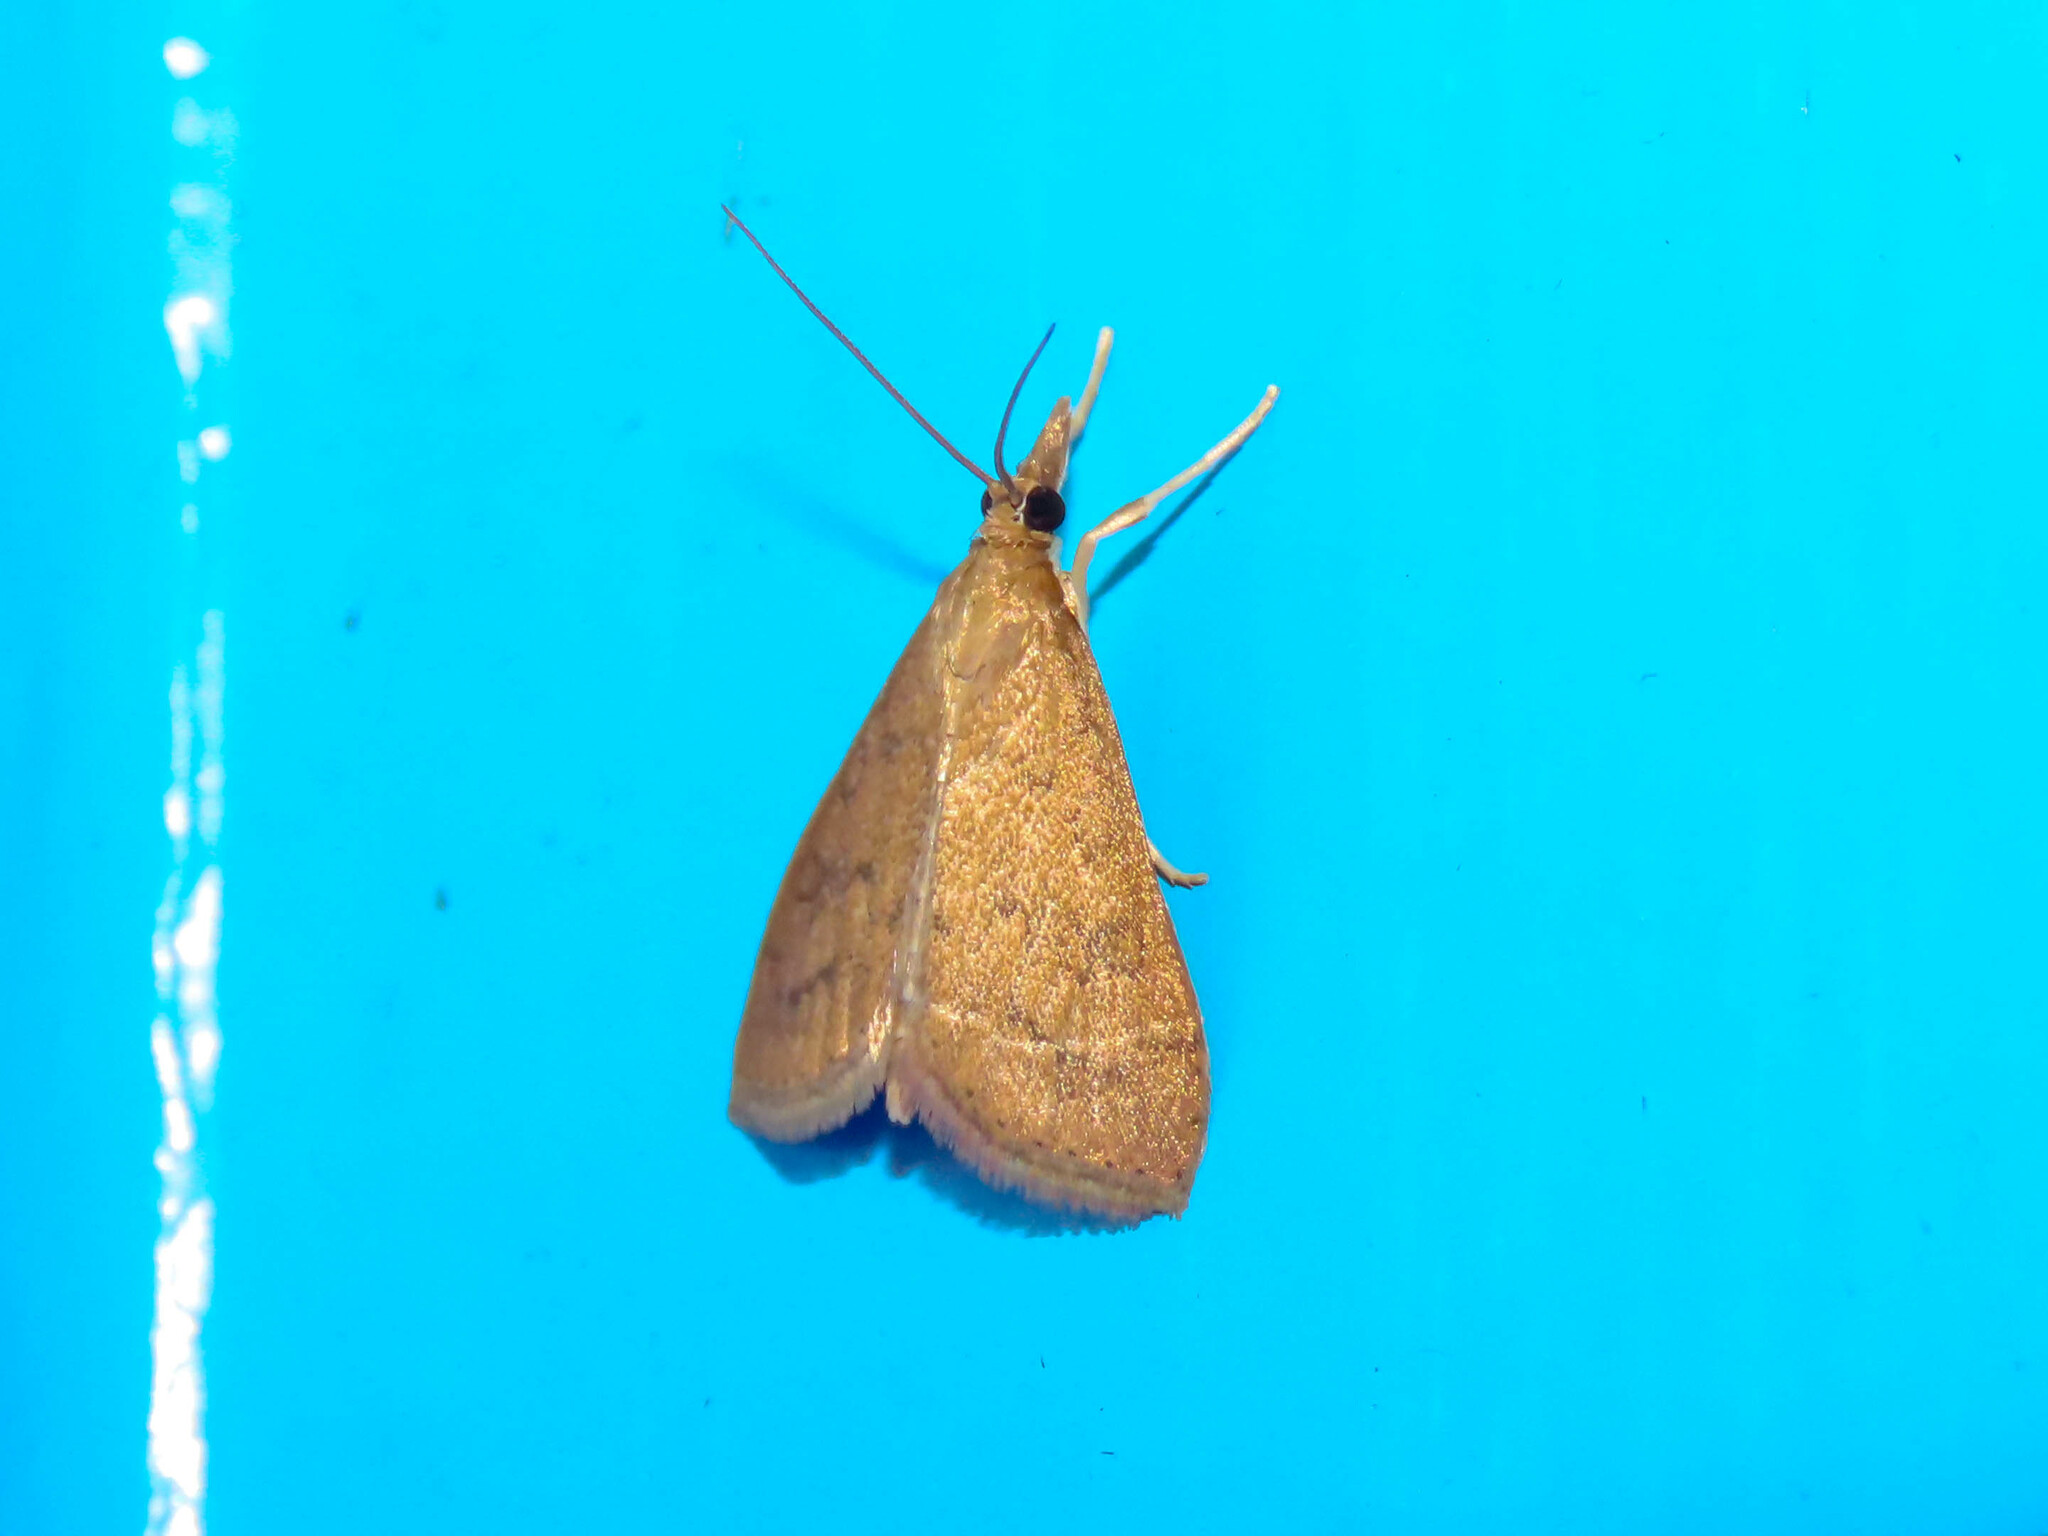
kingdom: Animalia
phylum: Arthropoda
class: Insecta
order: Lepidoptera
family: Crambidae
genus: Udea
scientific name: Udea rubigalis
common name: Celery leaftier moth
